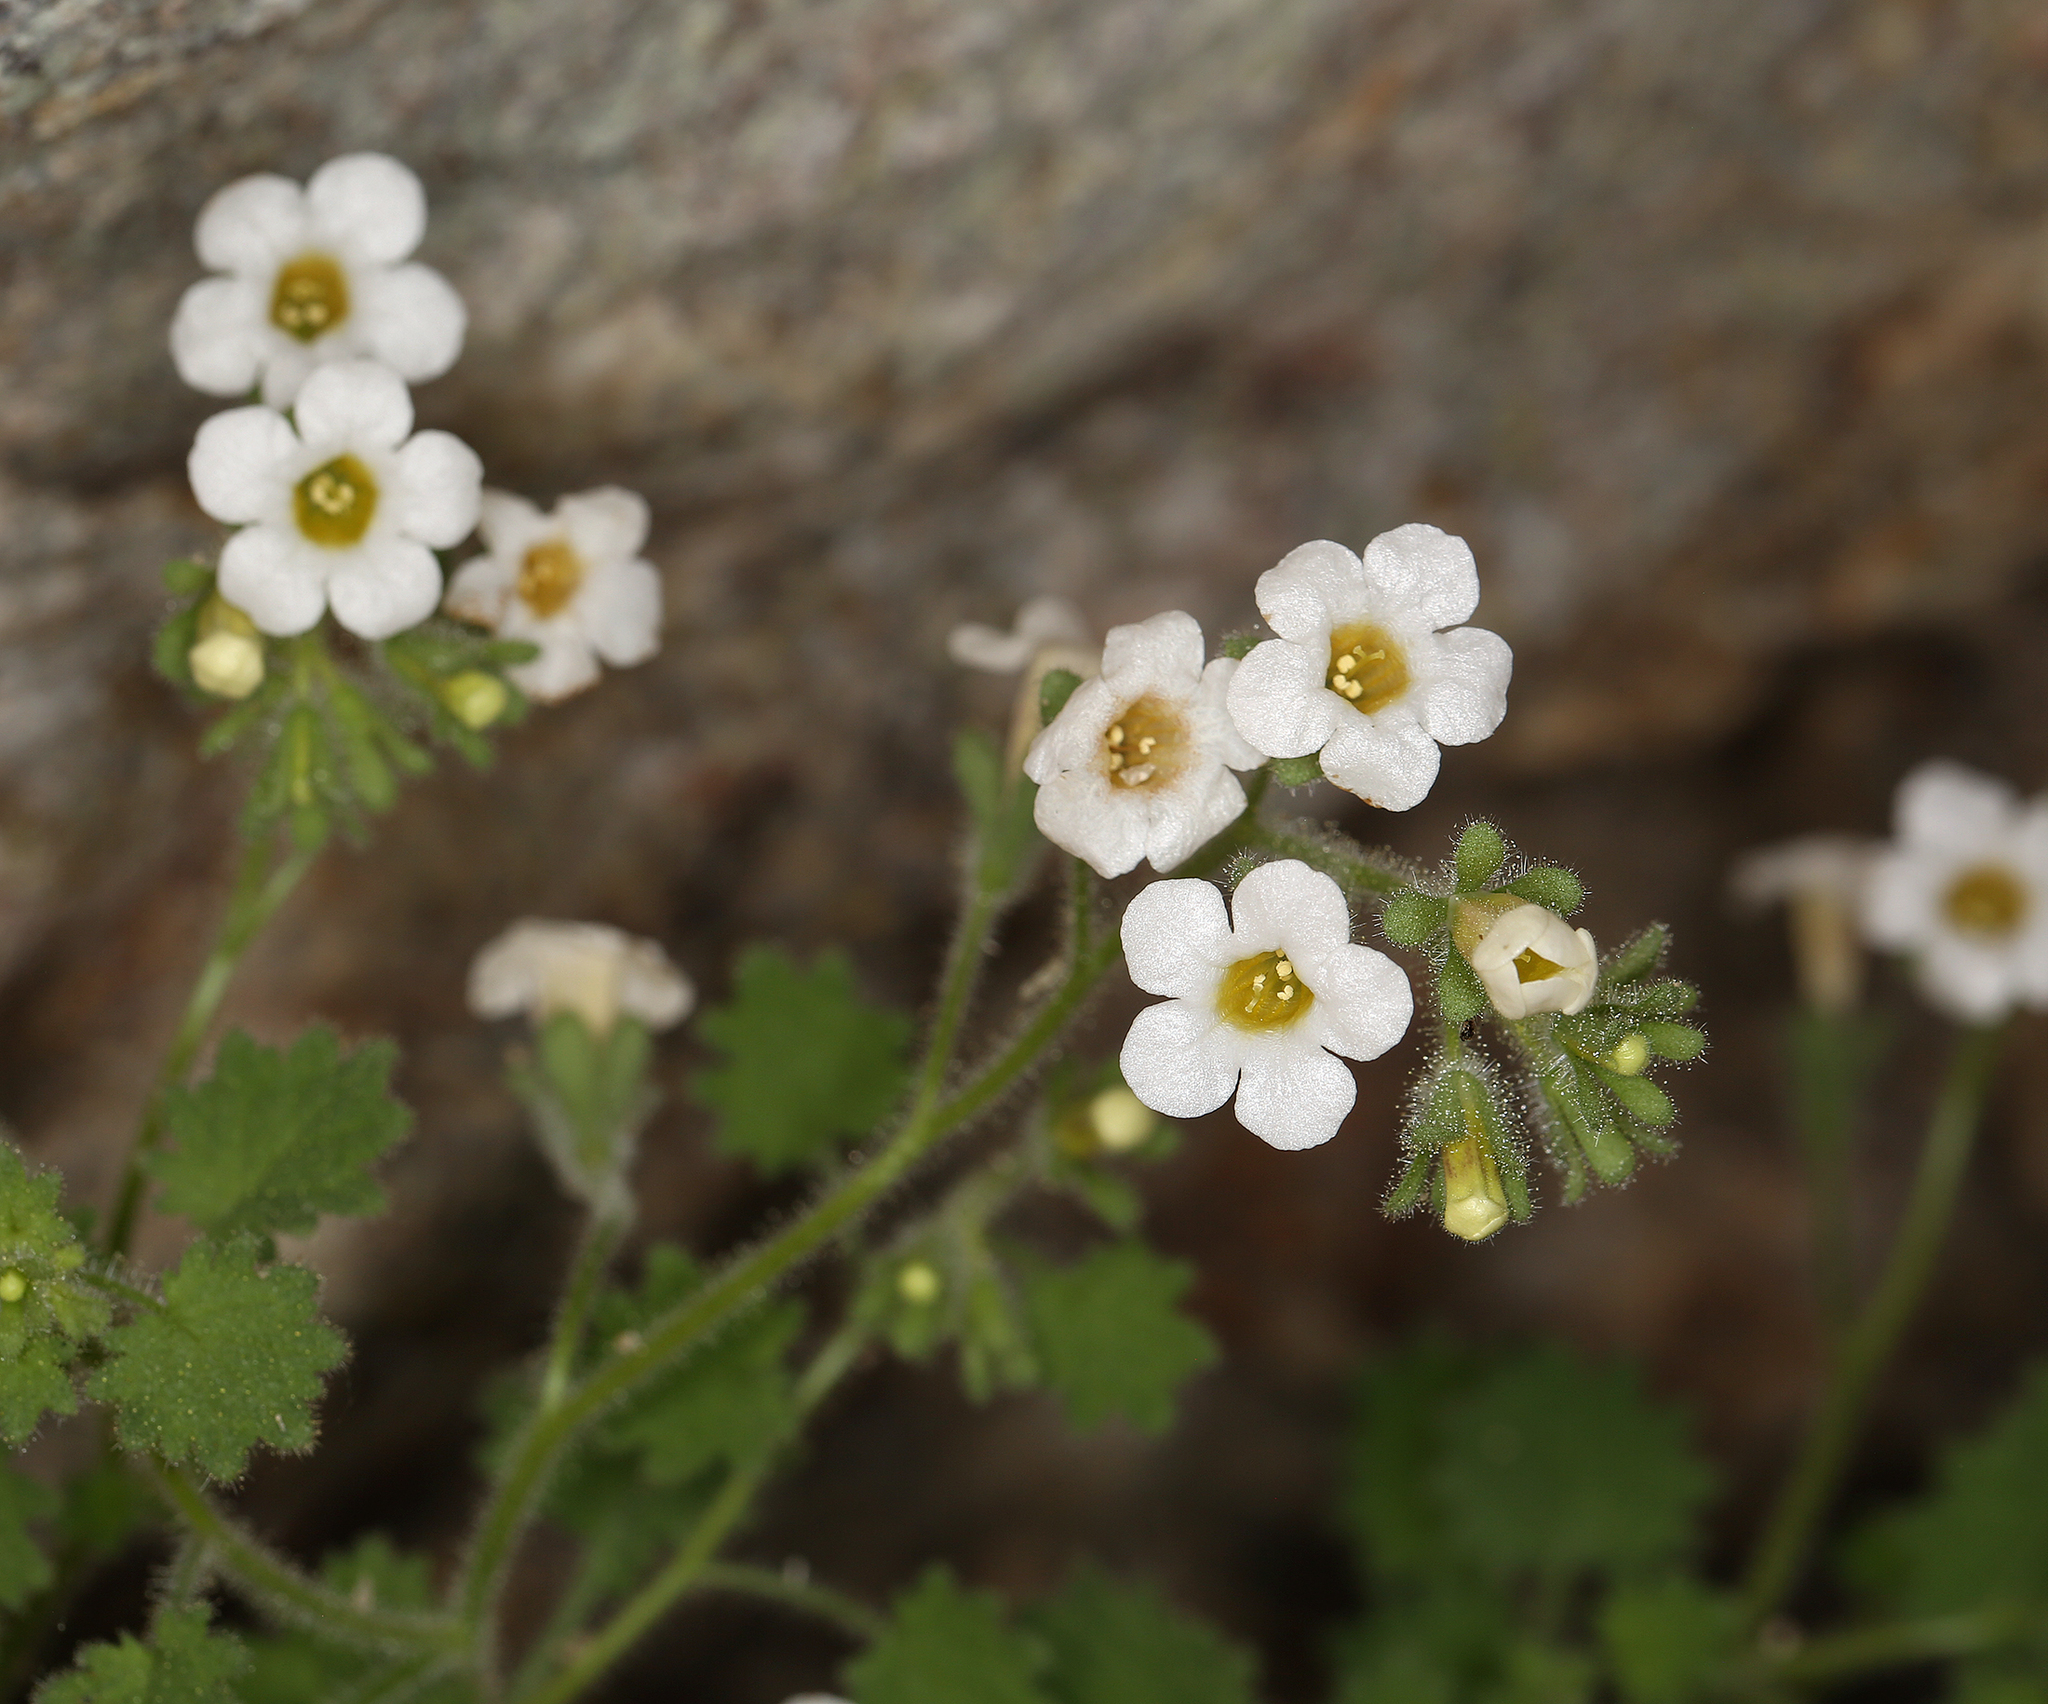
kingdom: Plantae
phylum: Tracheophyta
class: Magnoliopsida
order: Boraginales
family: Hydrophyllaceae
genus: Phacelia
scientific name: Phacelia perityloides
